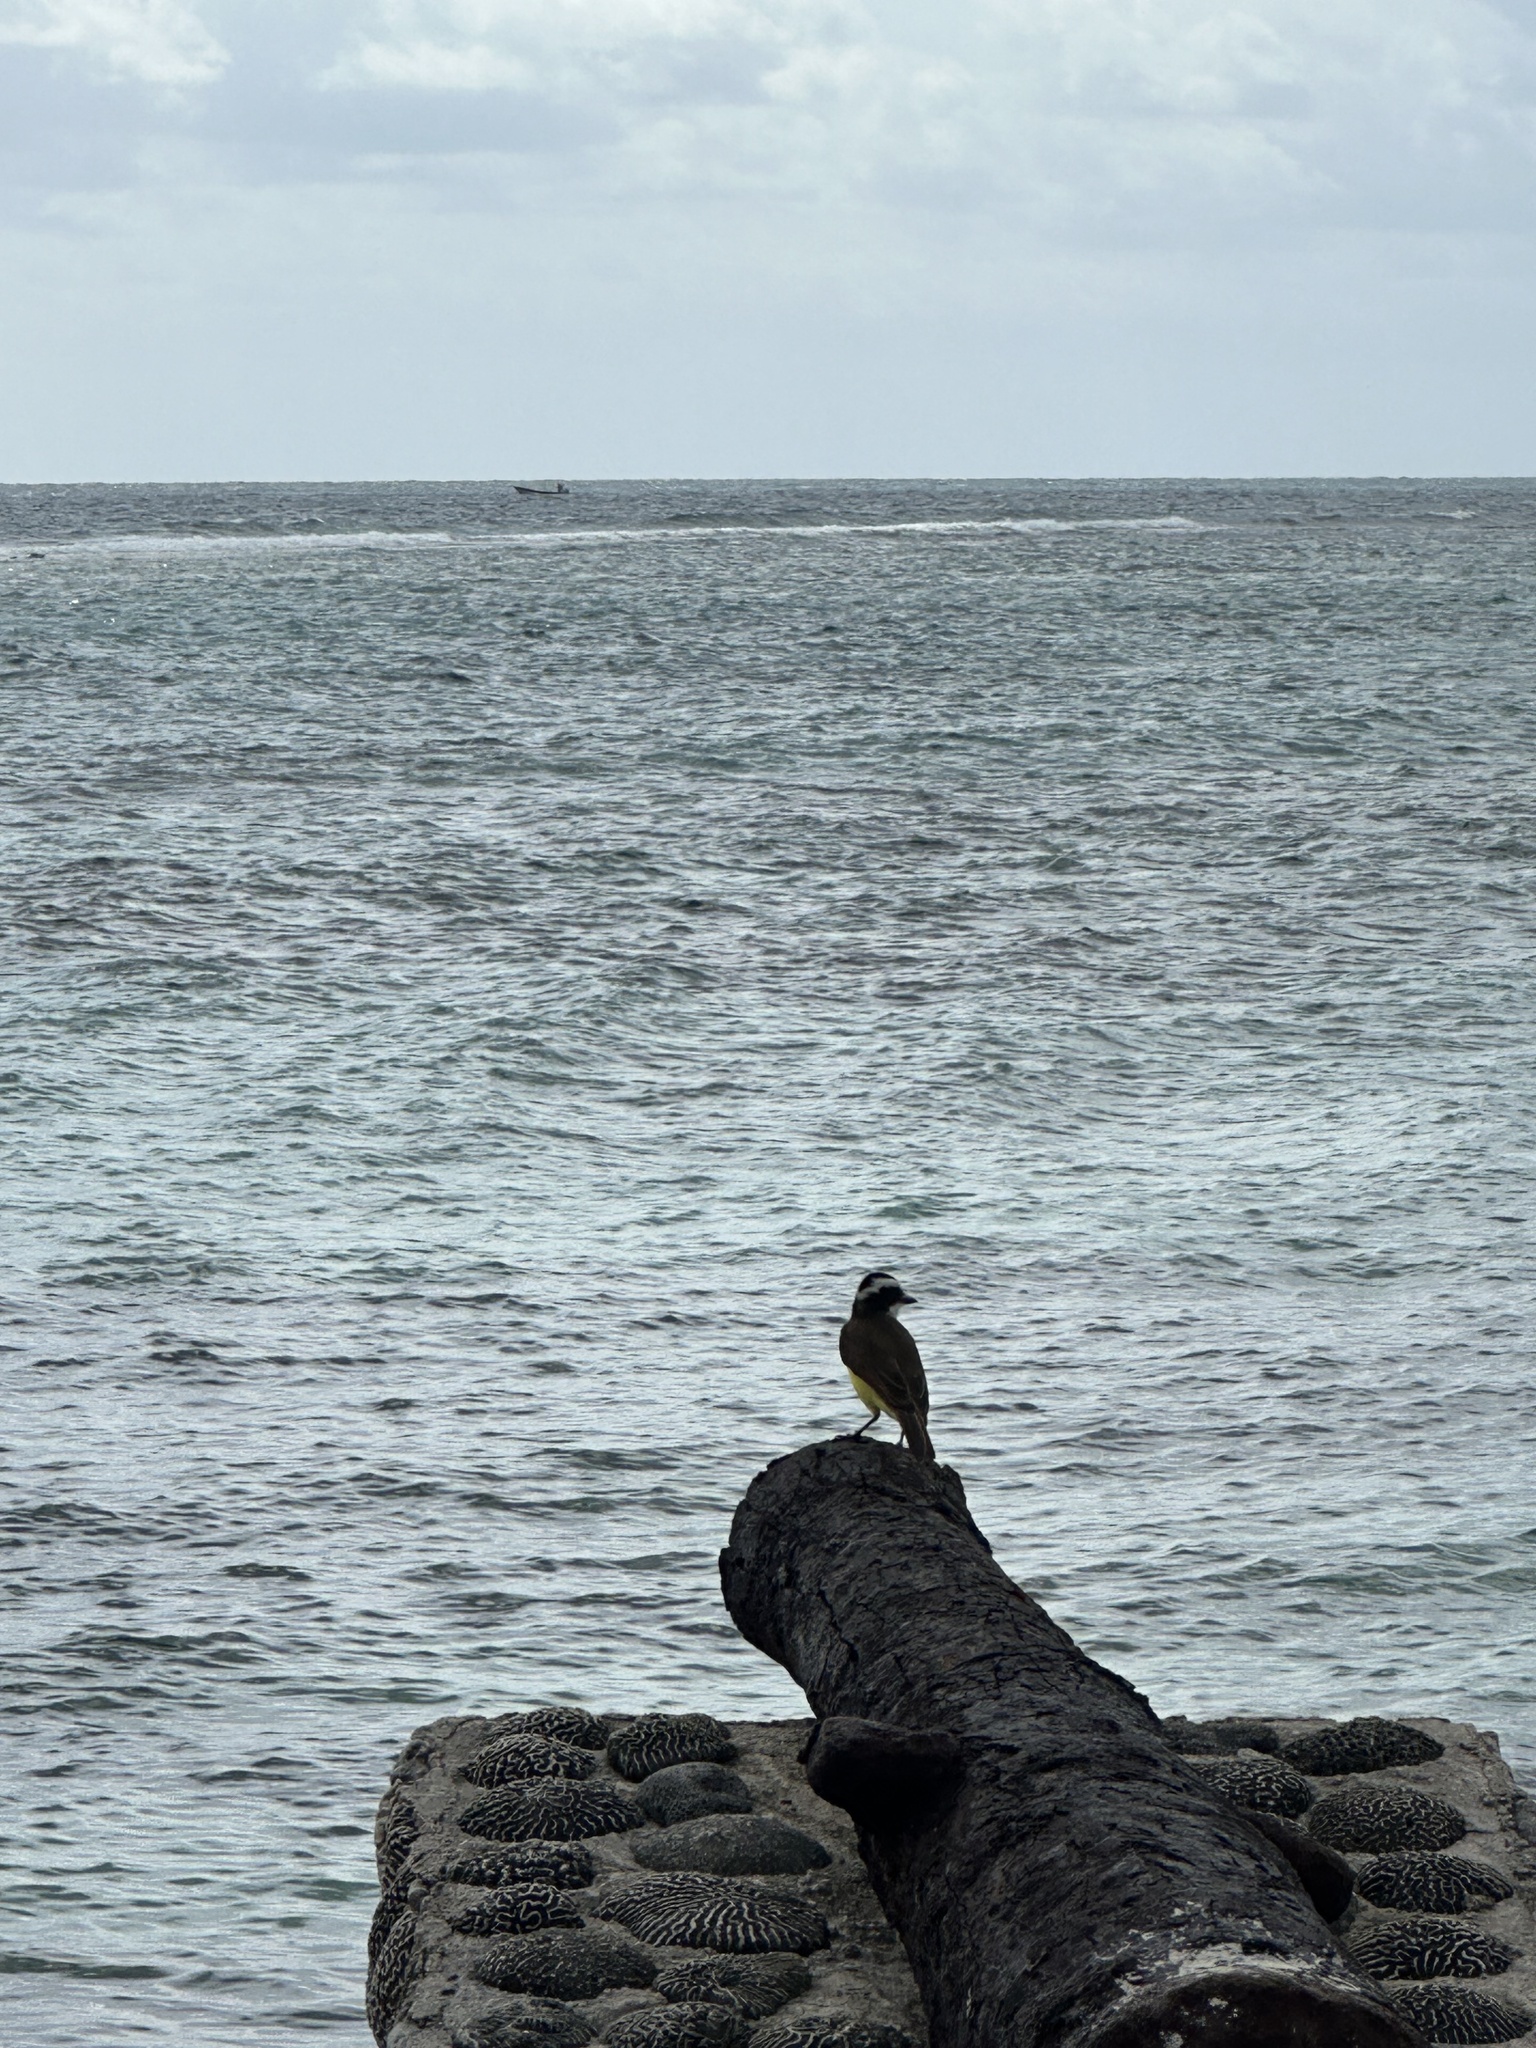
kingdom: Animalia
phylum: Chordata
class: Aves
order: Passeriformes
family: Tyrannidae
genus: Pitangus
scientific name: Pitangus sulphuratus
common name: Great kiskadee
